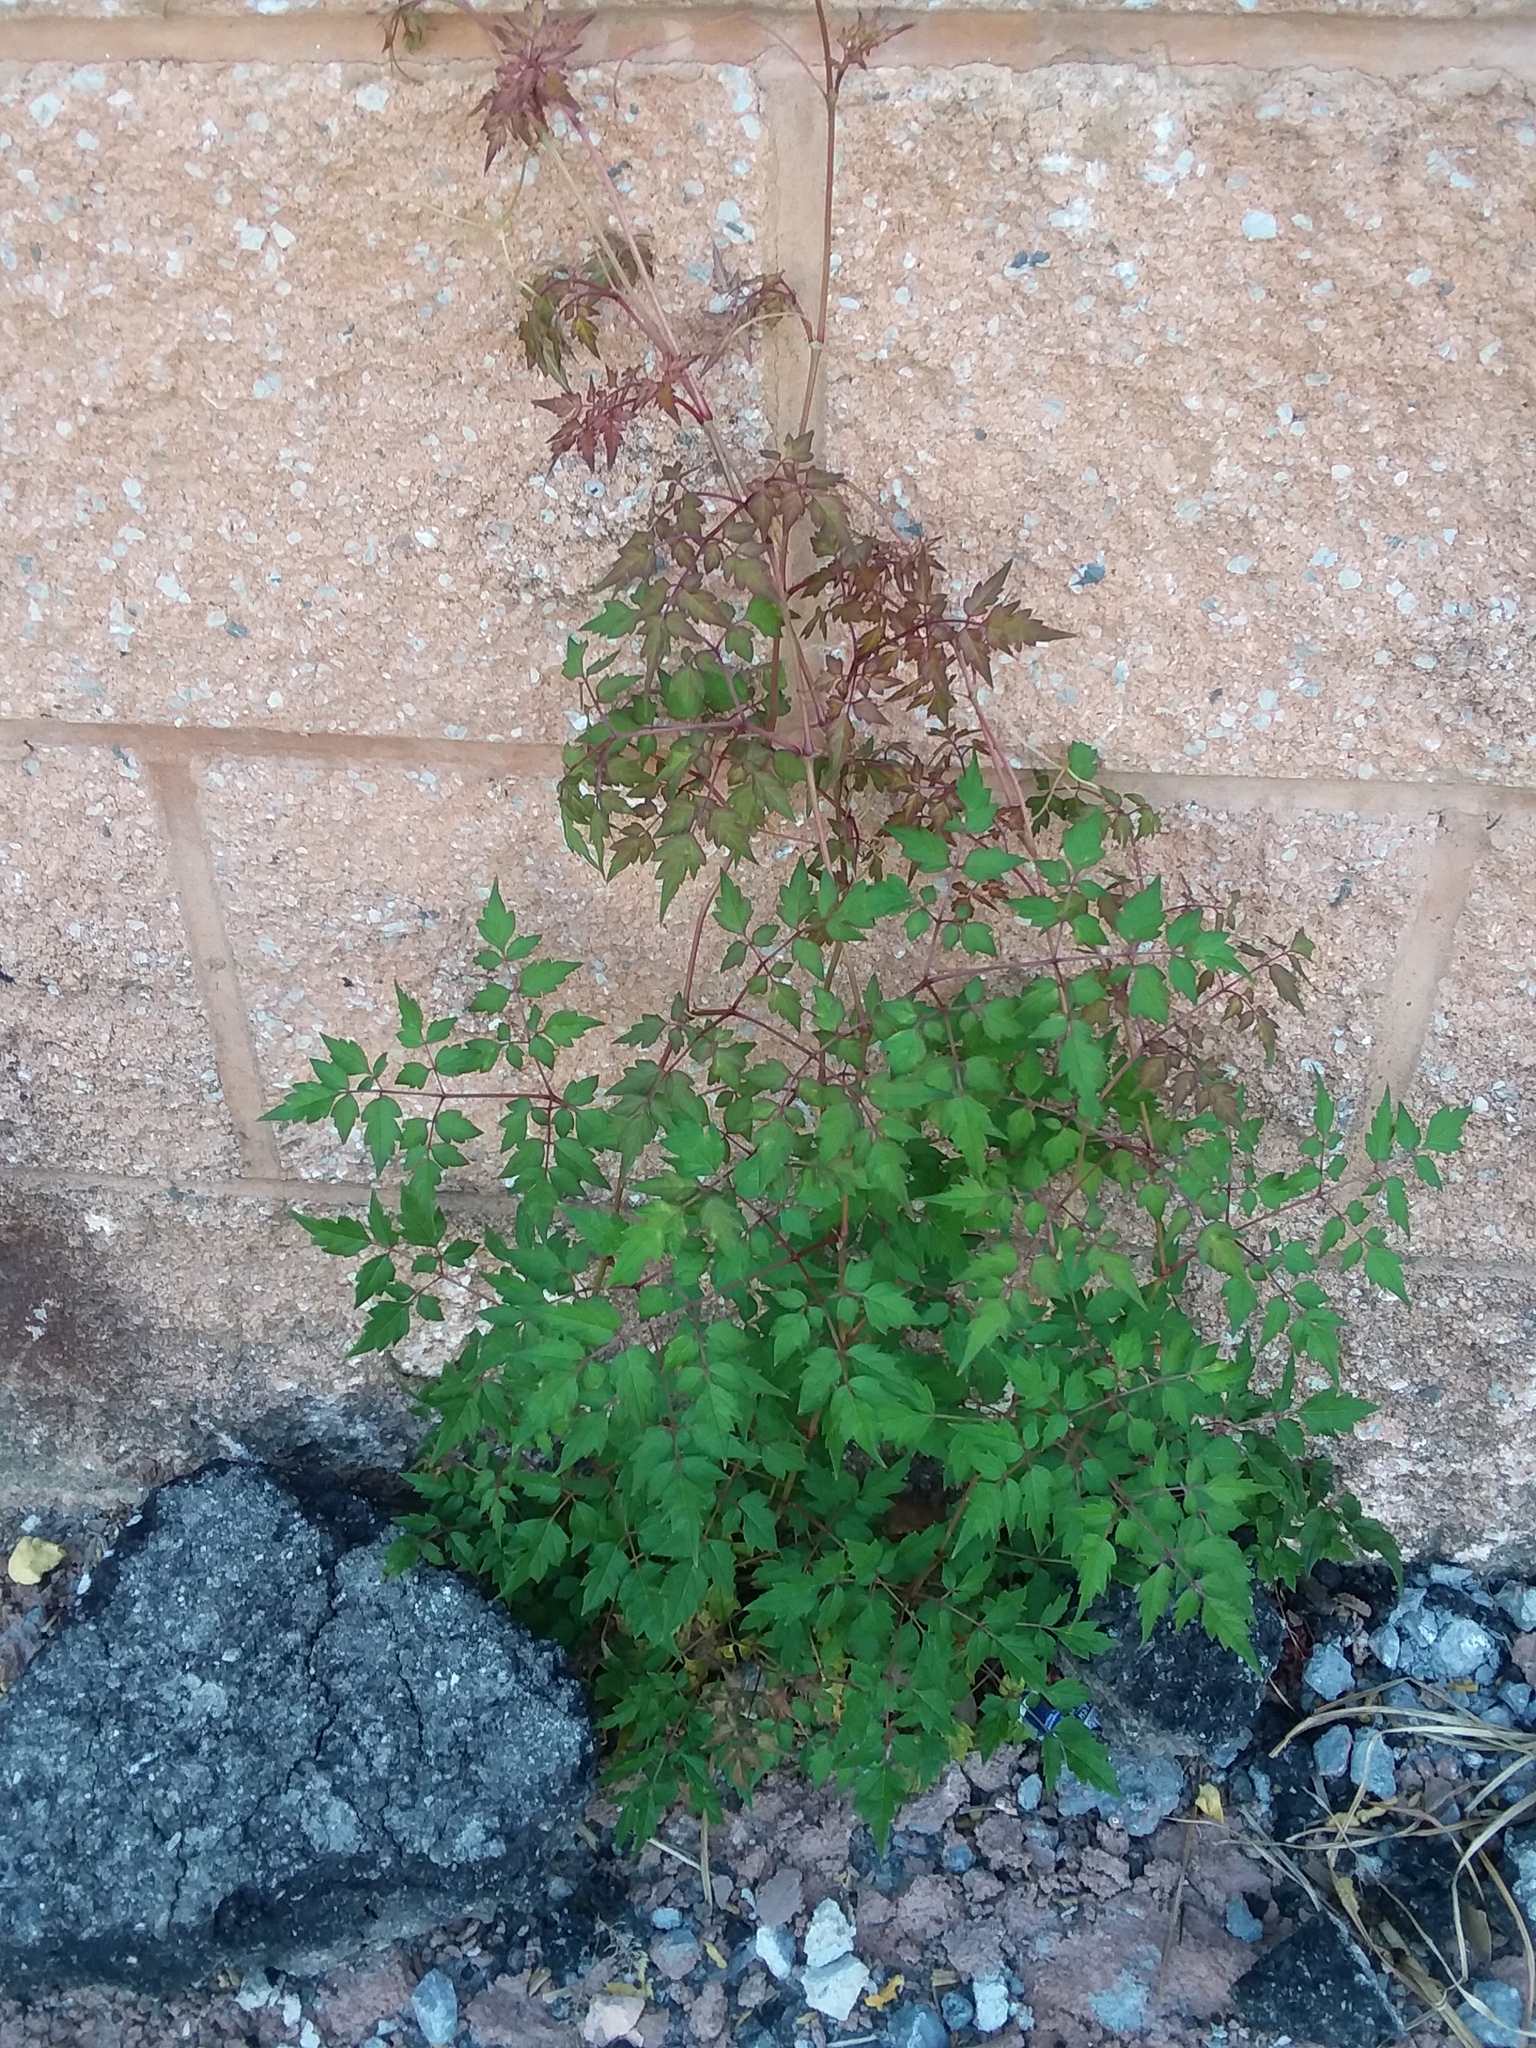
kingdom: Plantae
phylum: Tracheophyta
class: Magnoliopsida
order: Vitales
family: Vitaceae
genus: Nekemias
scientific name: Nekemias arborea
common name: Peppervine
